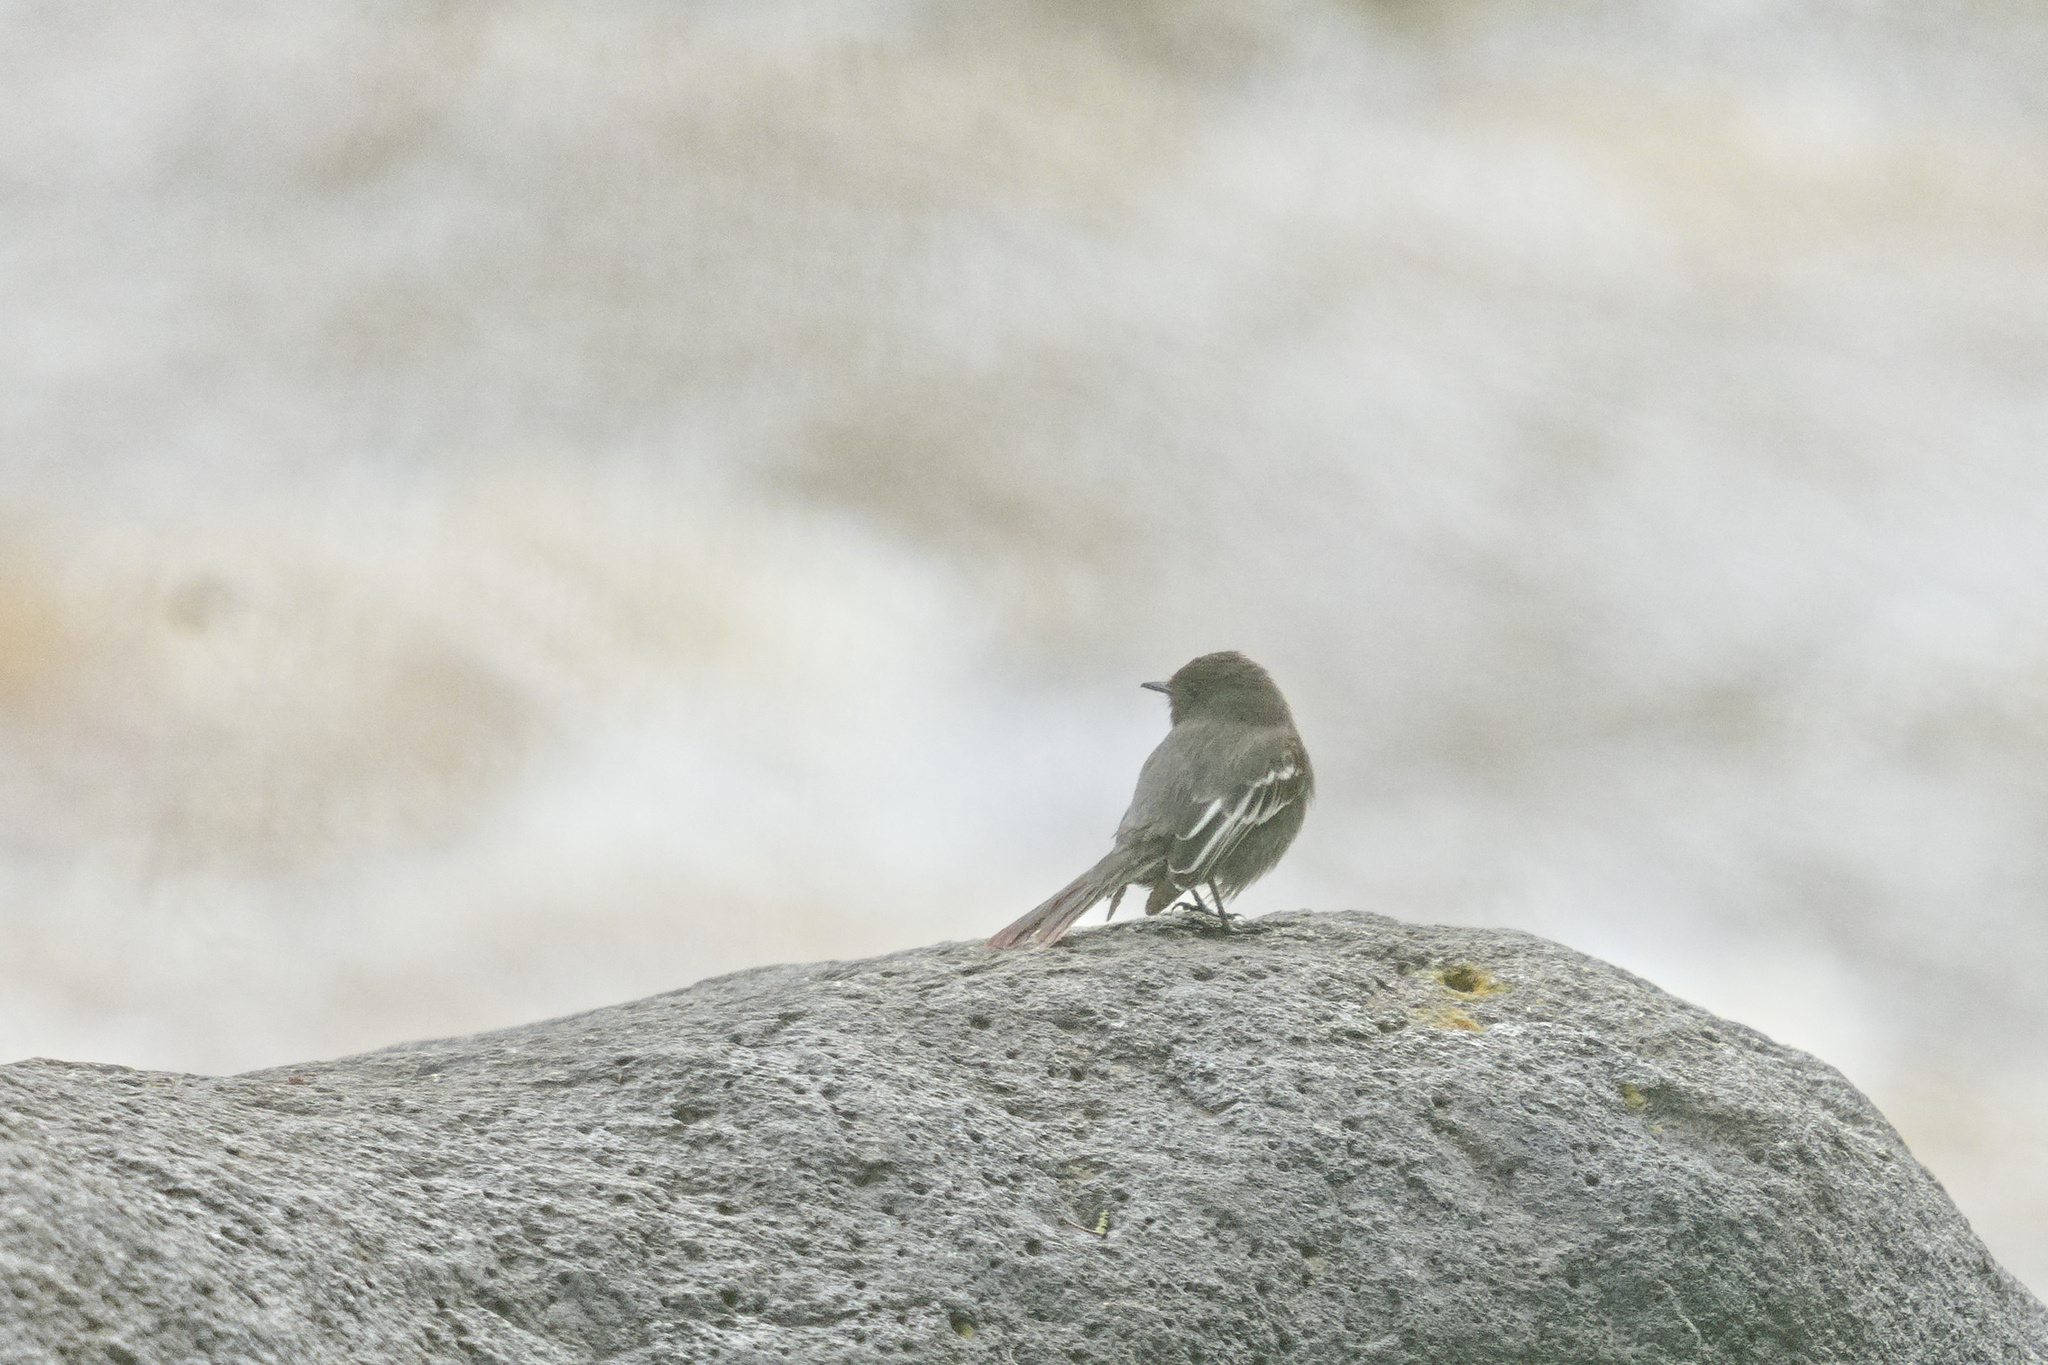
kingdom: Animalia
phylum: Chordata
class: Aves
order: Passeriformes
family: Tyrannidae
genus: Sayornis
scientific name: Sayornis nigricans
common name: Black phoebe
